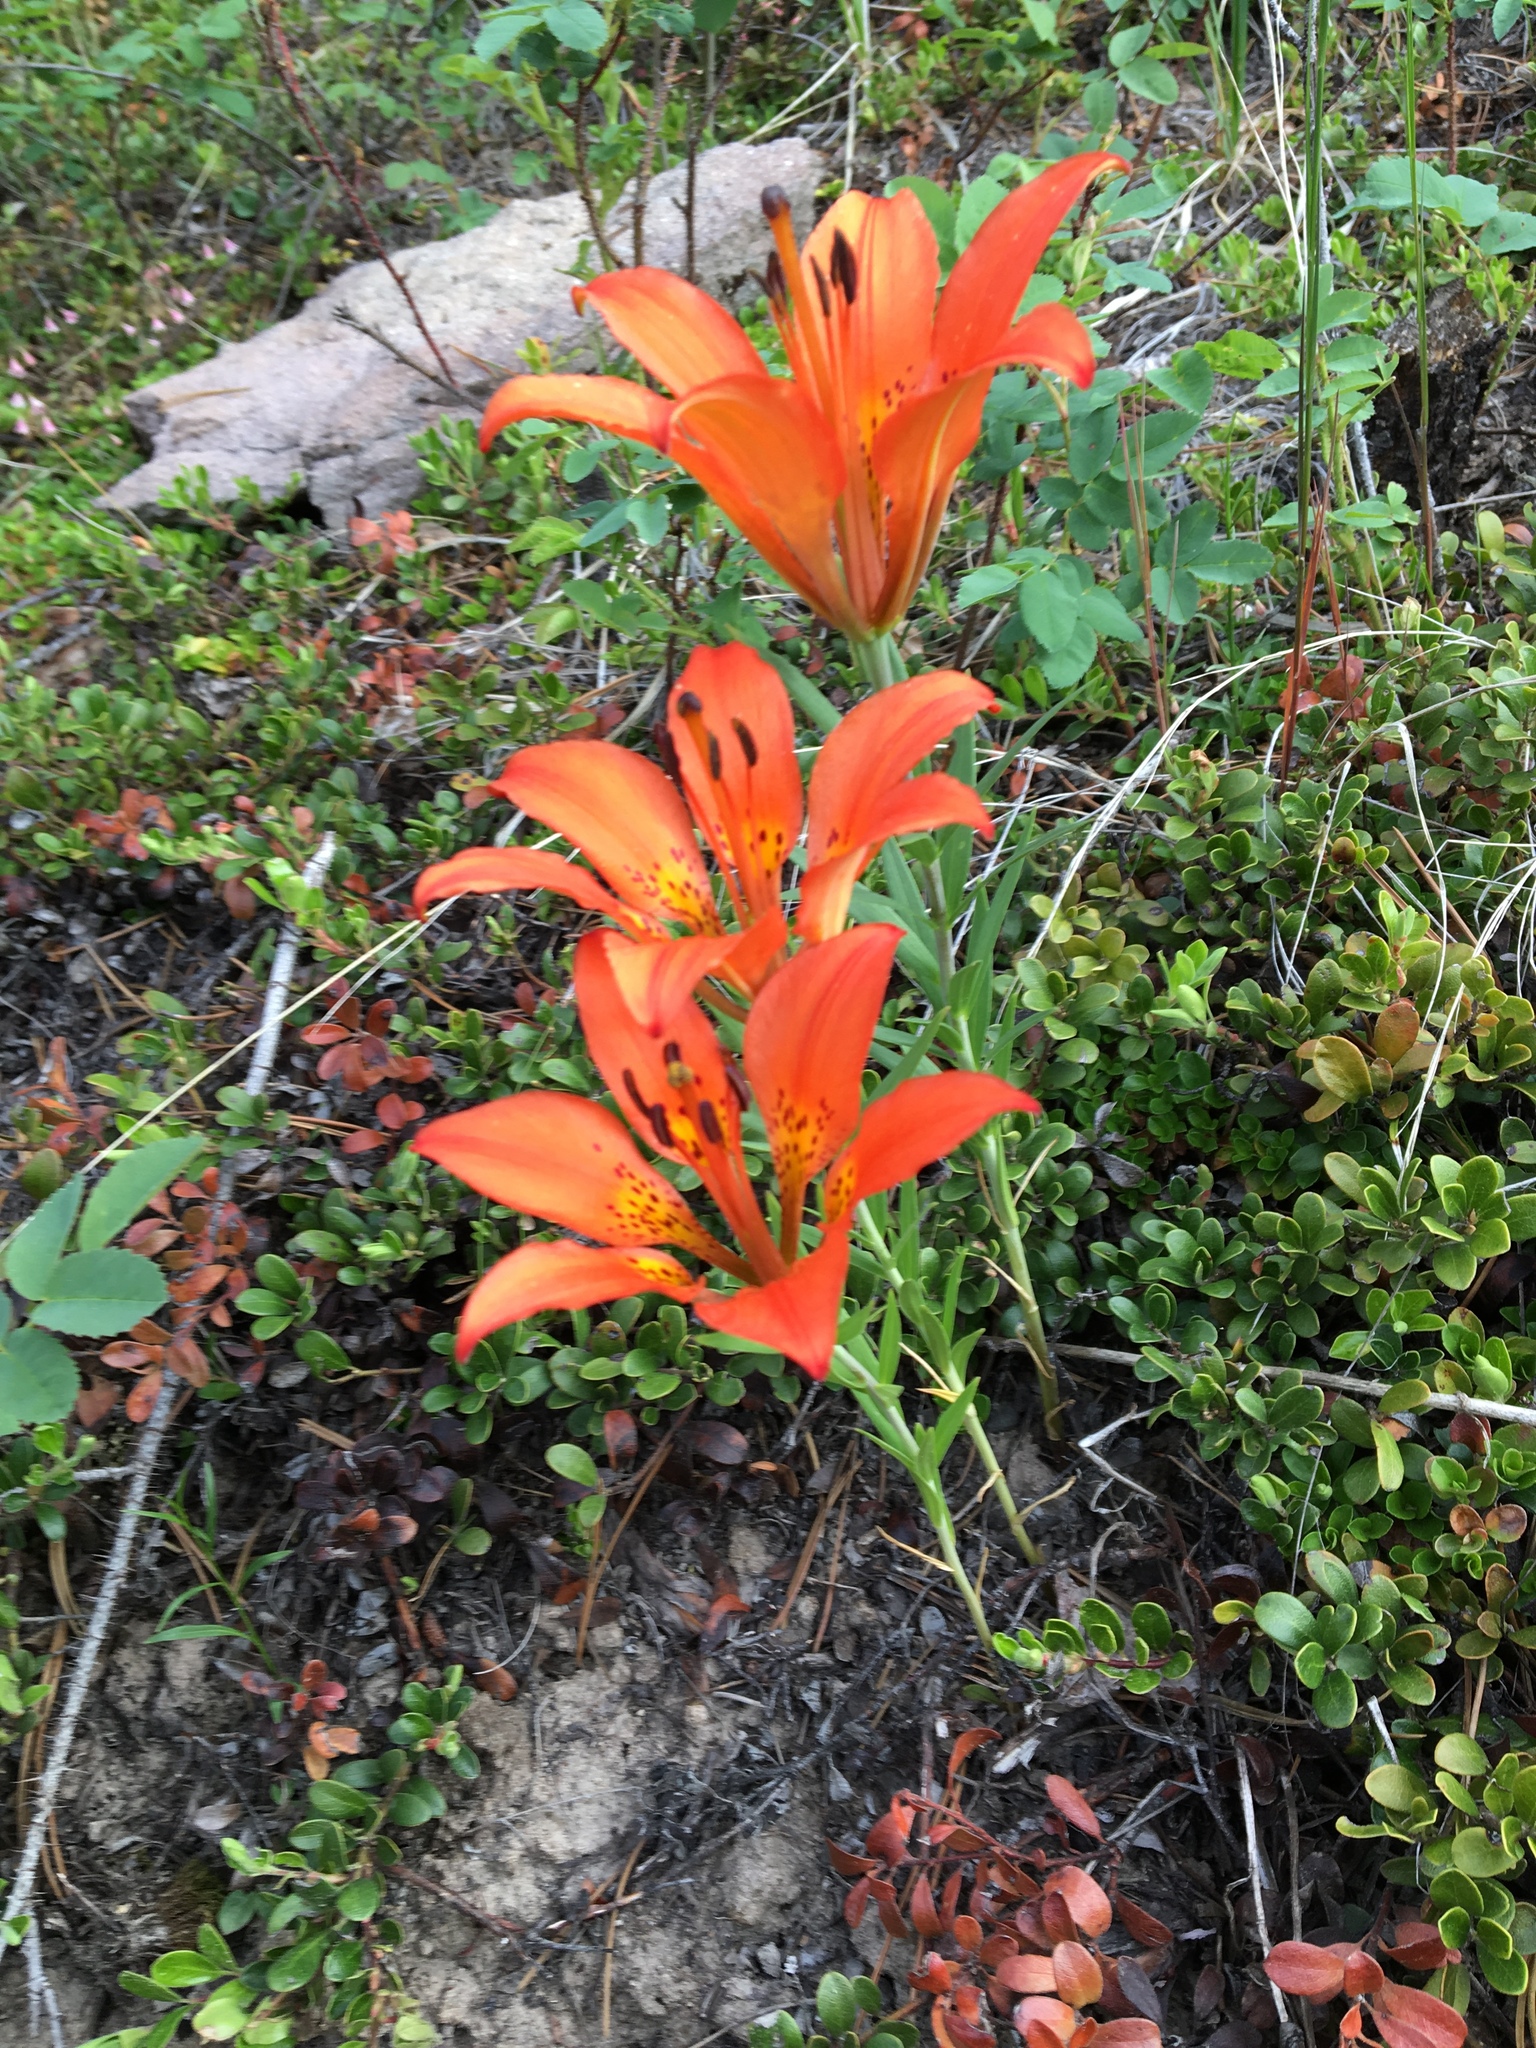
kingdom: Plantae
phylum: Tracheophyta
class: Liliopsida
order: Liliales
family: Liliaceae
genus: Lilium
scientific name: Lilium philadelphicum
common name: Red lily
